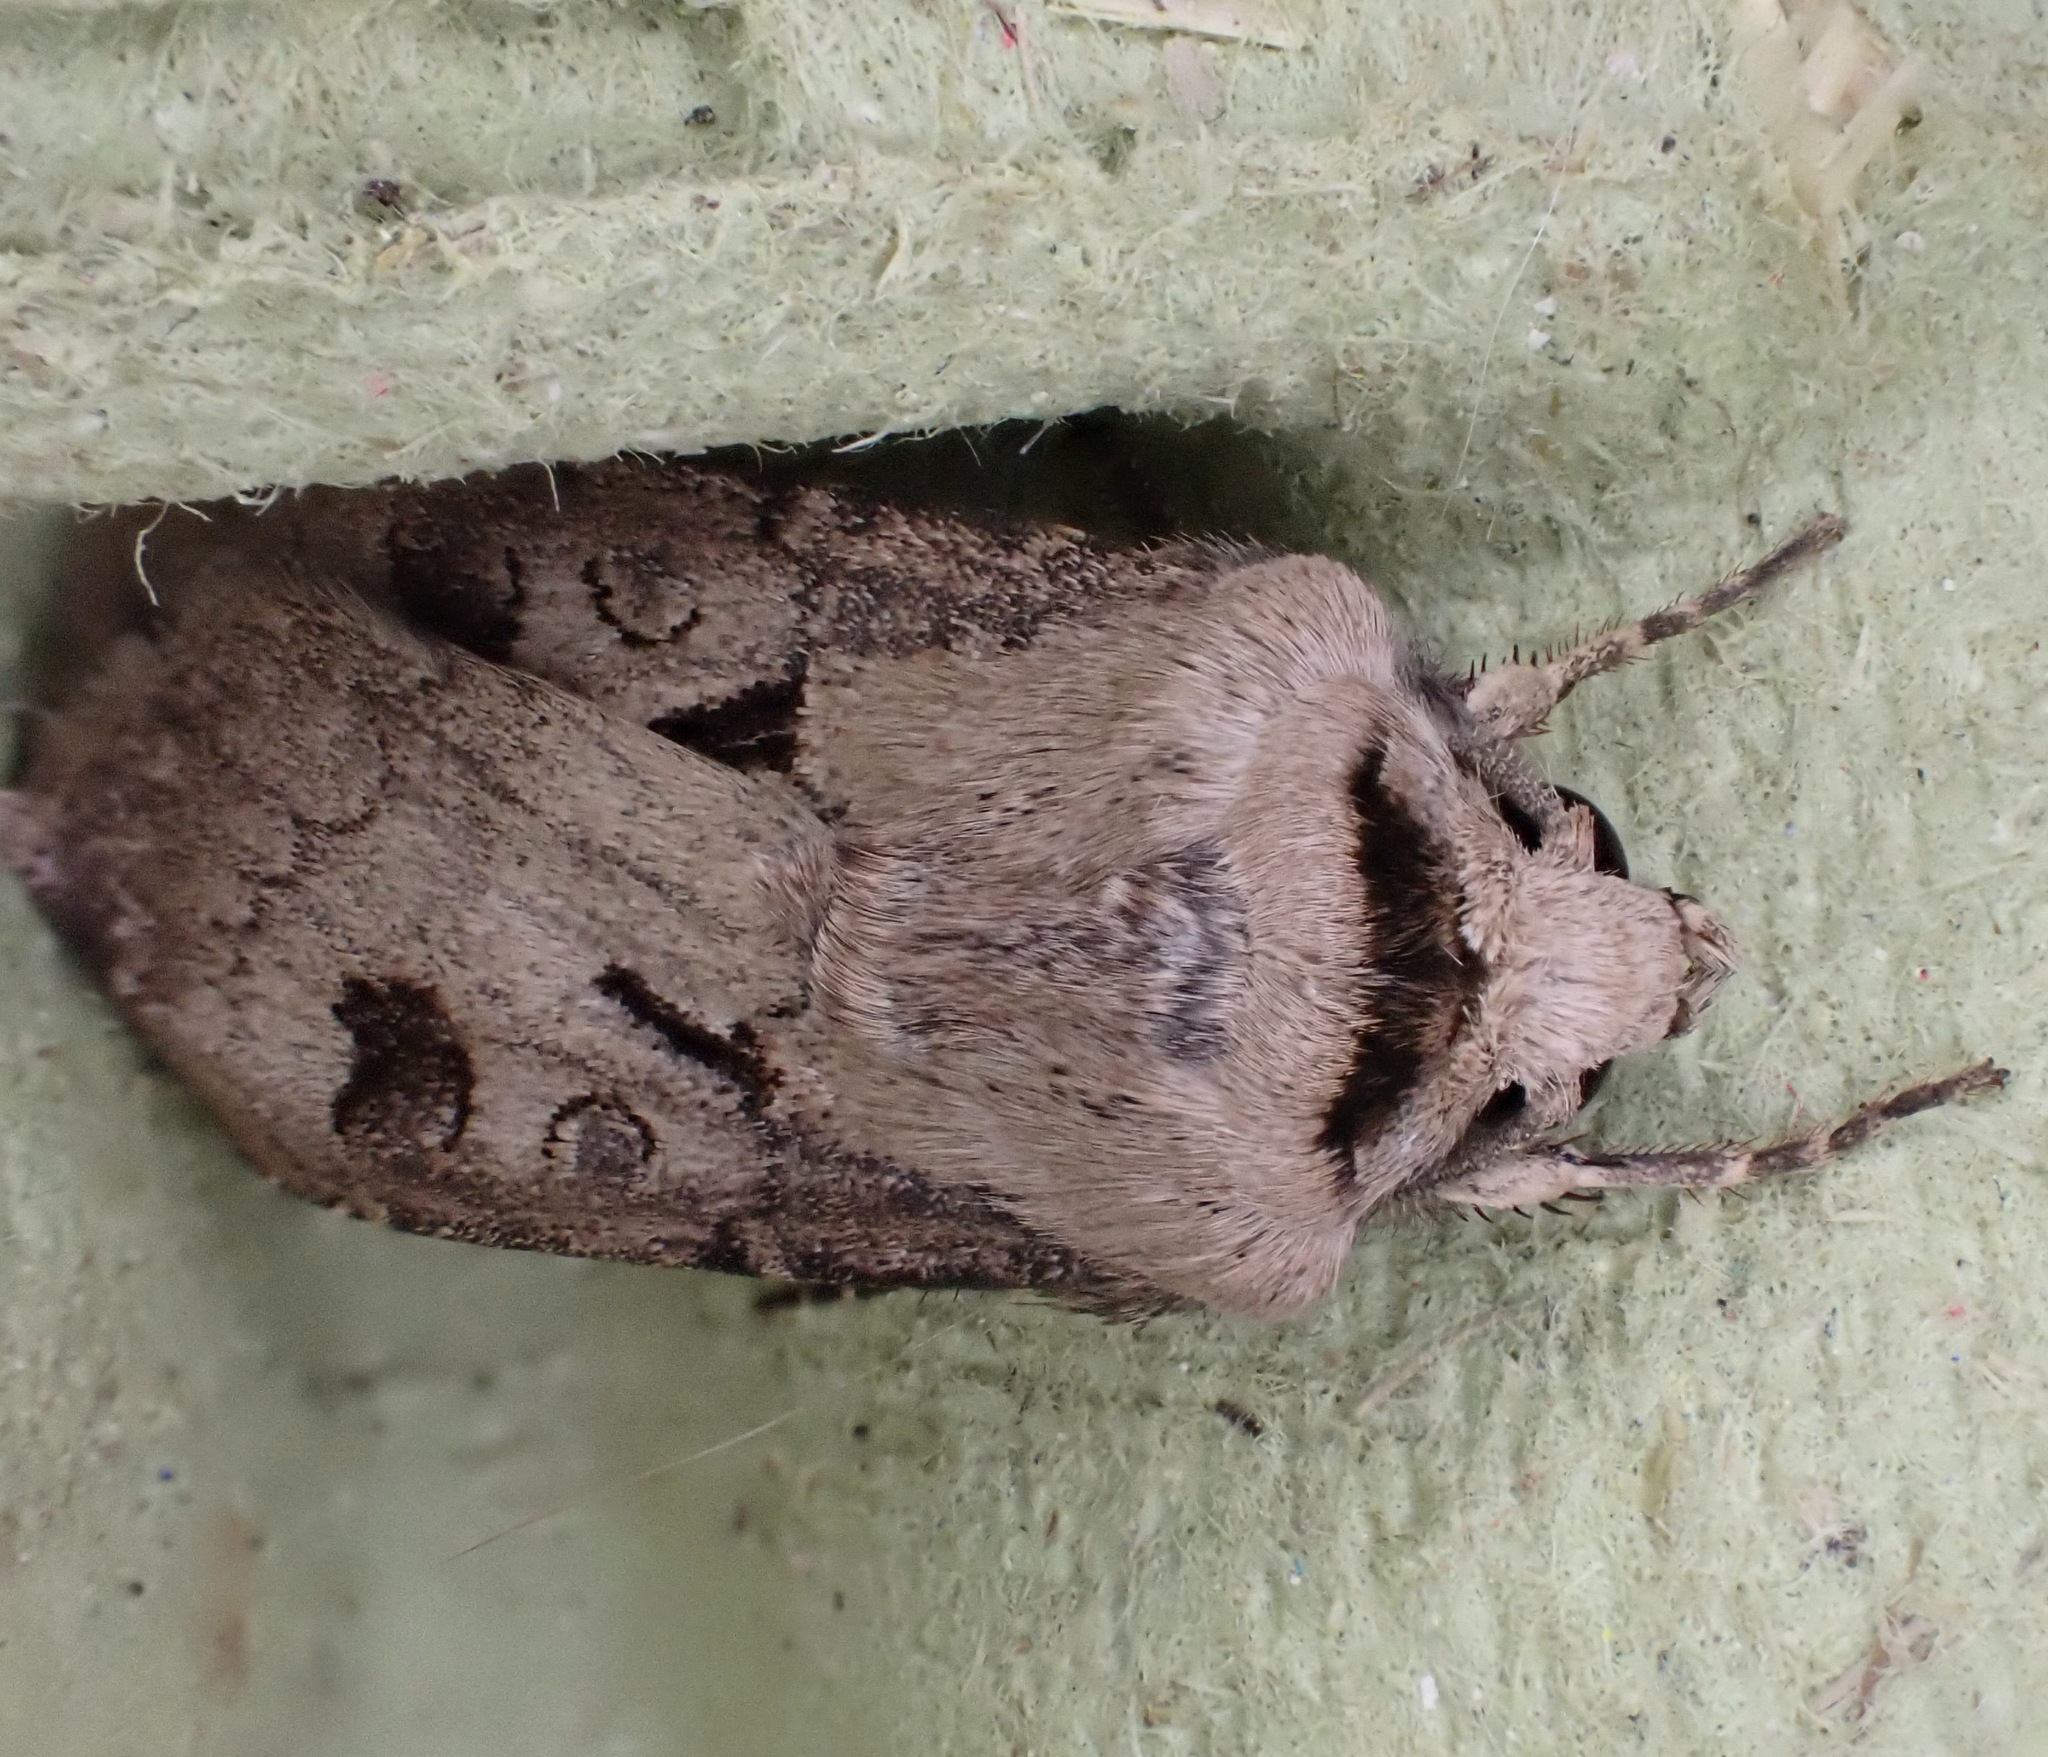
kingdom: Animalia
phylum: Arthropoda
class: Insecta
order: Lepidoptera
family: Noctuidae
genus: Agrotis
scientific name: Agrotis exclamationis
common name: Heart and dart
